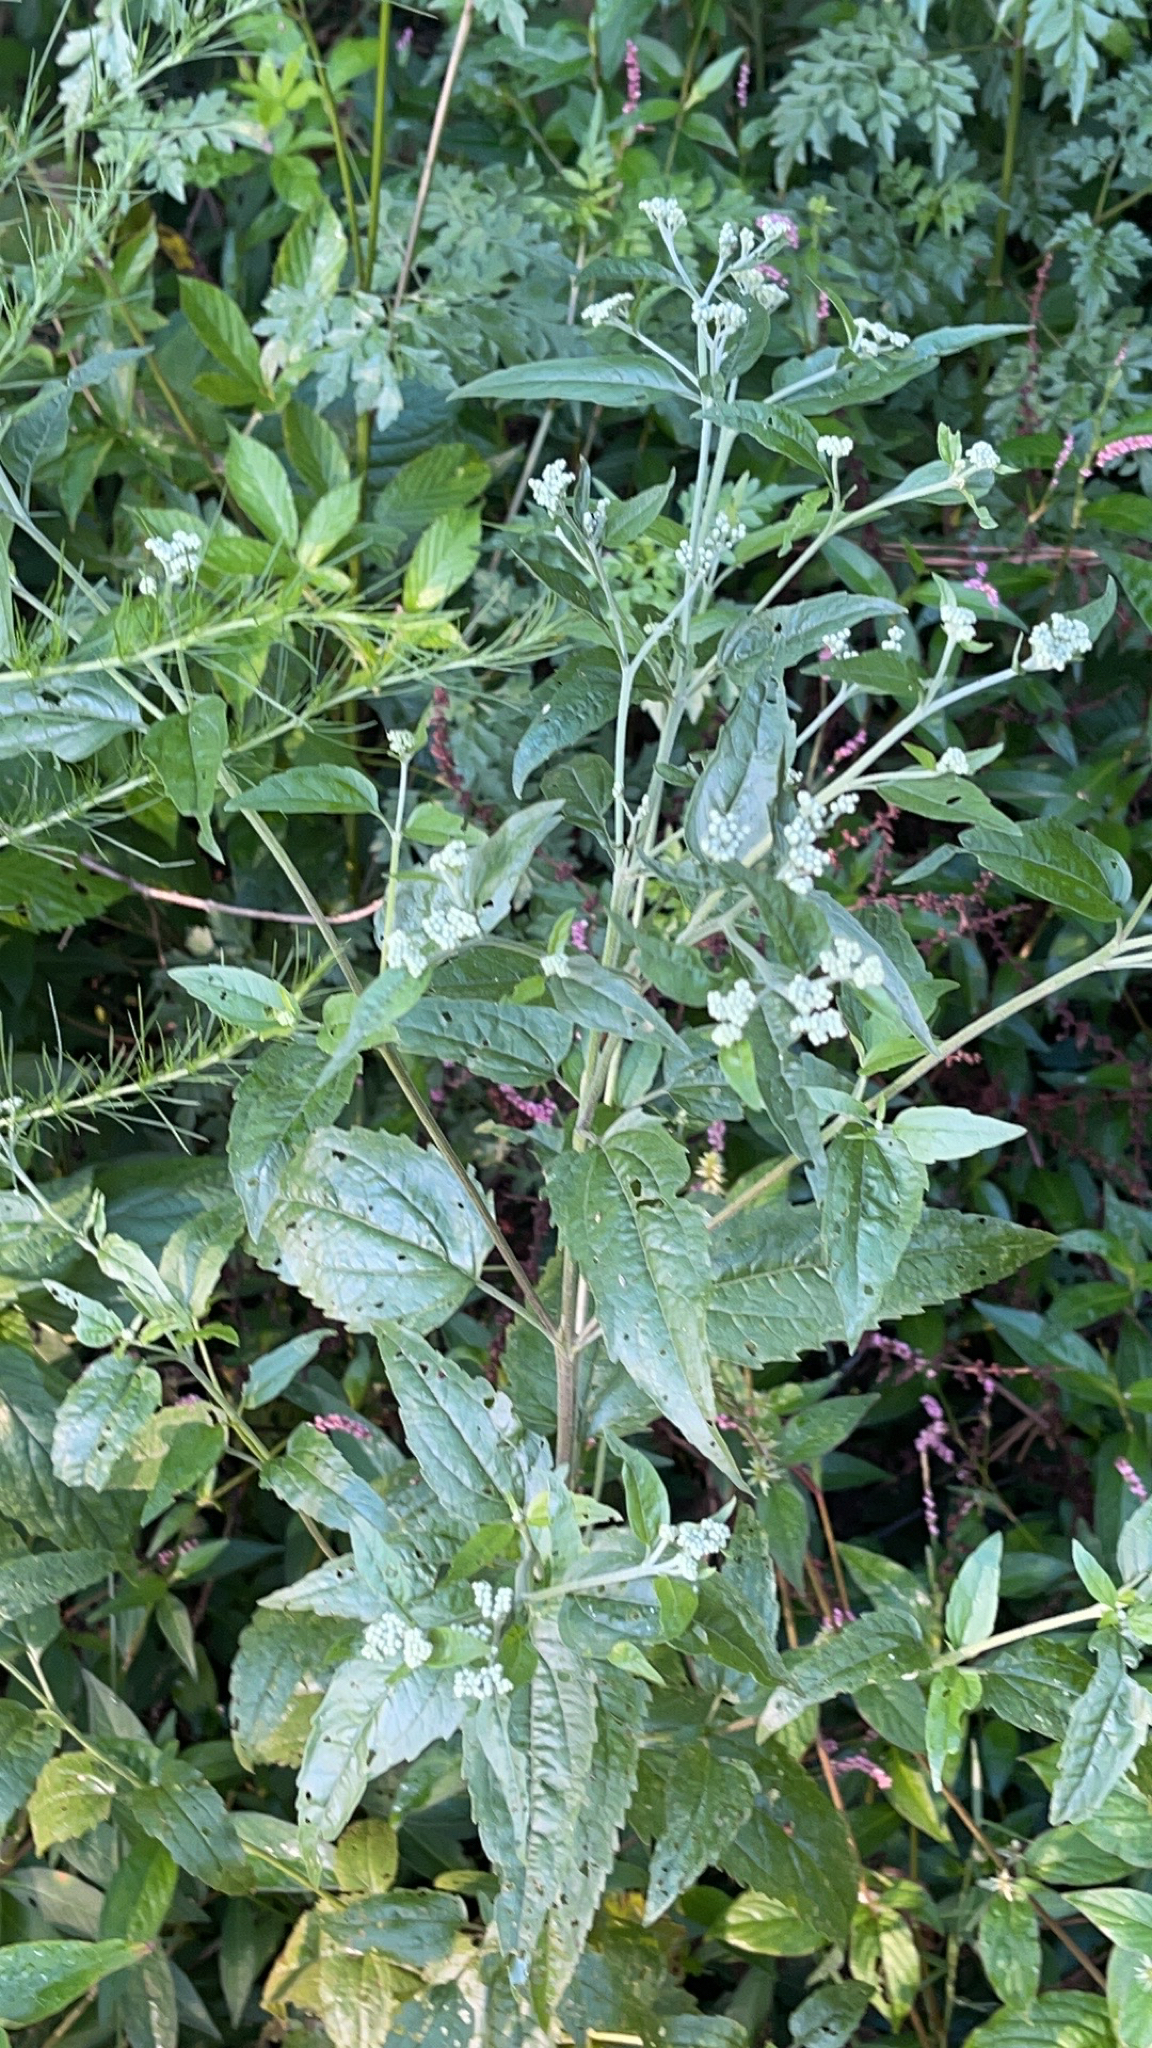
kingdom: Plantae
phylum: Tracheophyta
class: Magnoliopsida
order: Asterales
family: Asteraceae
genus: Eupatorium
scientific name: Eupatorium serotinum
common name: Late boneset
